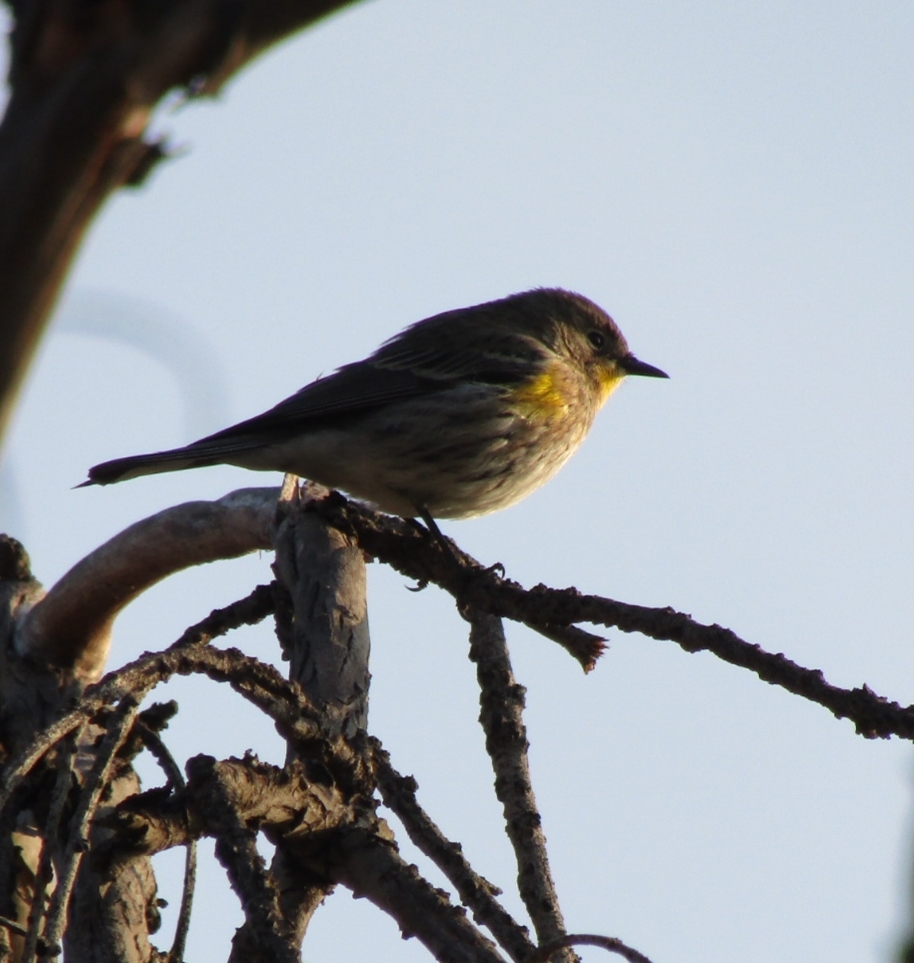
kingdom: Animalia
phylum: Chordata
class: Aves
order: Passeriformes
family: Parulidae
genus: Setophaga
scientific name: Setophaga coronata
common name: Myrtle warbler
